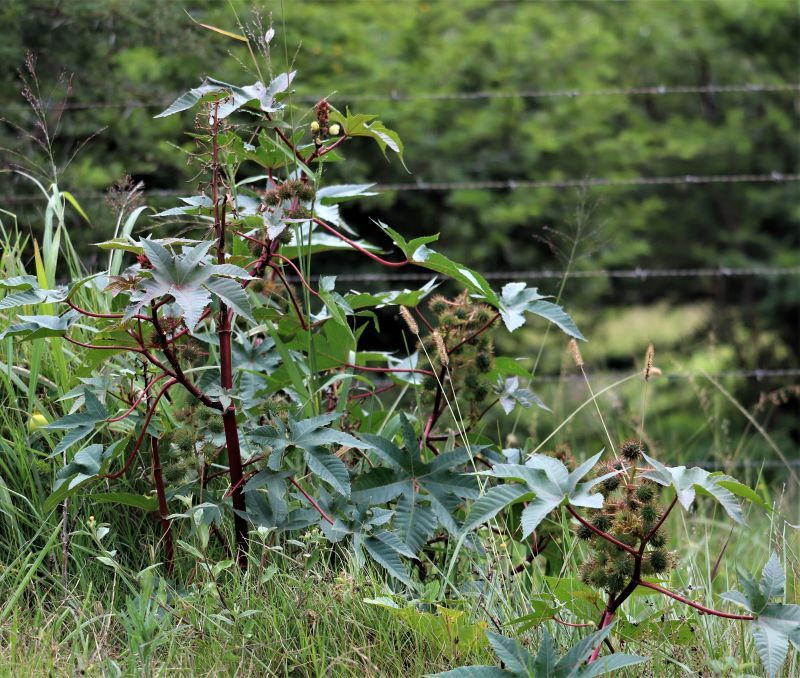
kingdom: Plantae
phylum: Tracheophyta
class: Magnoliopsida
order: Malpighiales
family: Euphorbiaceae
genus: Ricinus
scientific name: Ricinus communis
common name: Castor-oil-plant
